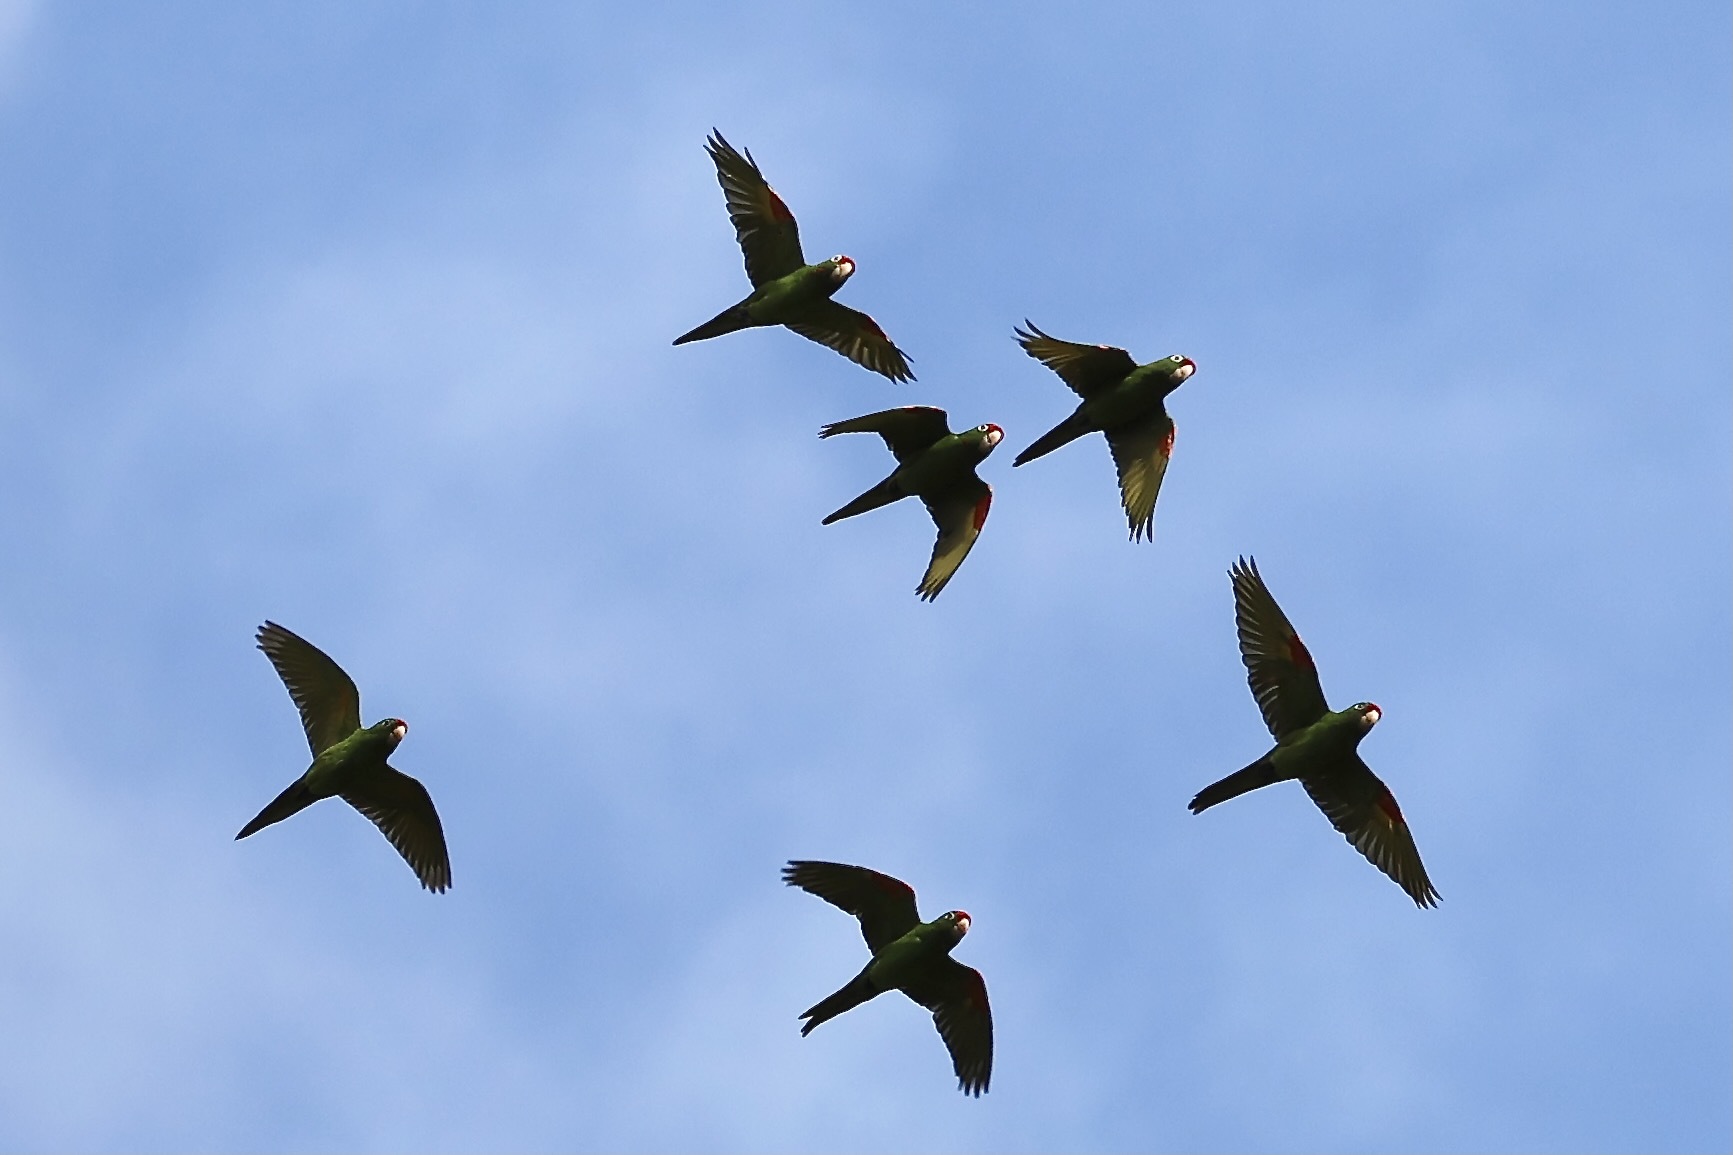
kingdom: Animalia
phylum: Chordata
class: Aves
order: Psittaciformes
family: Psittacidae
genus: Aratinga
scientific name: Aratinga finschi
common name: Crimson-fronted parakeet
